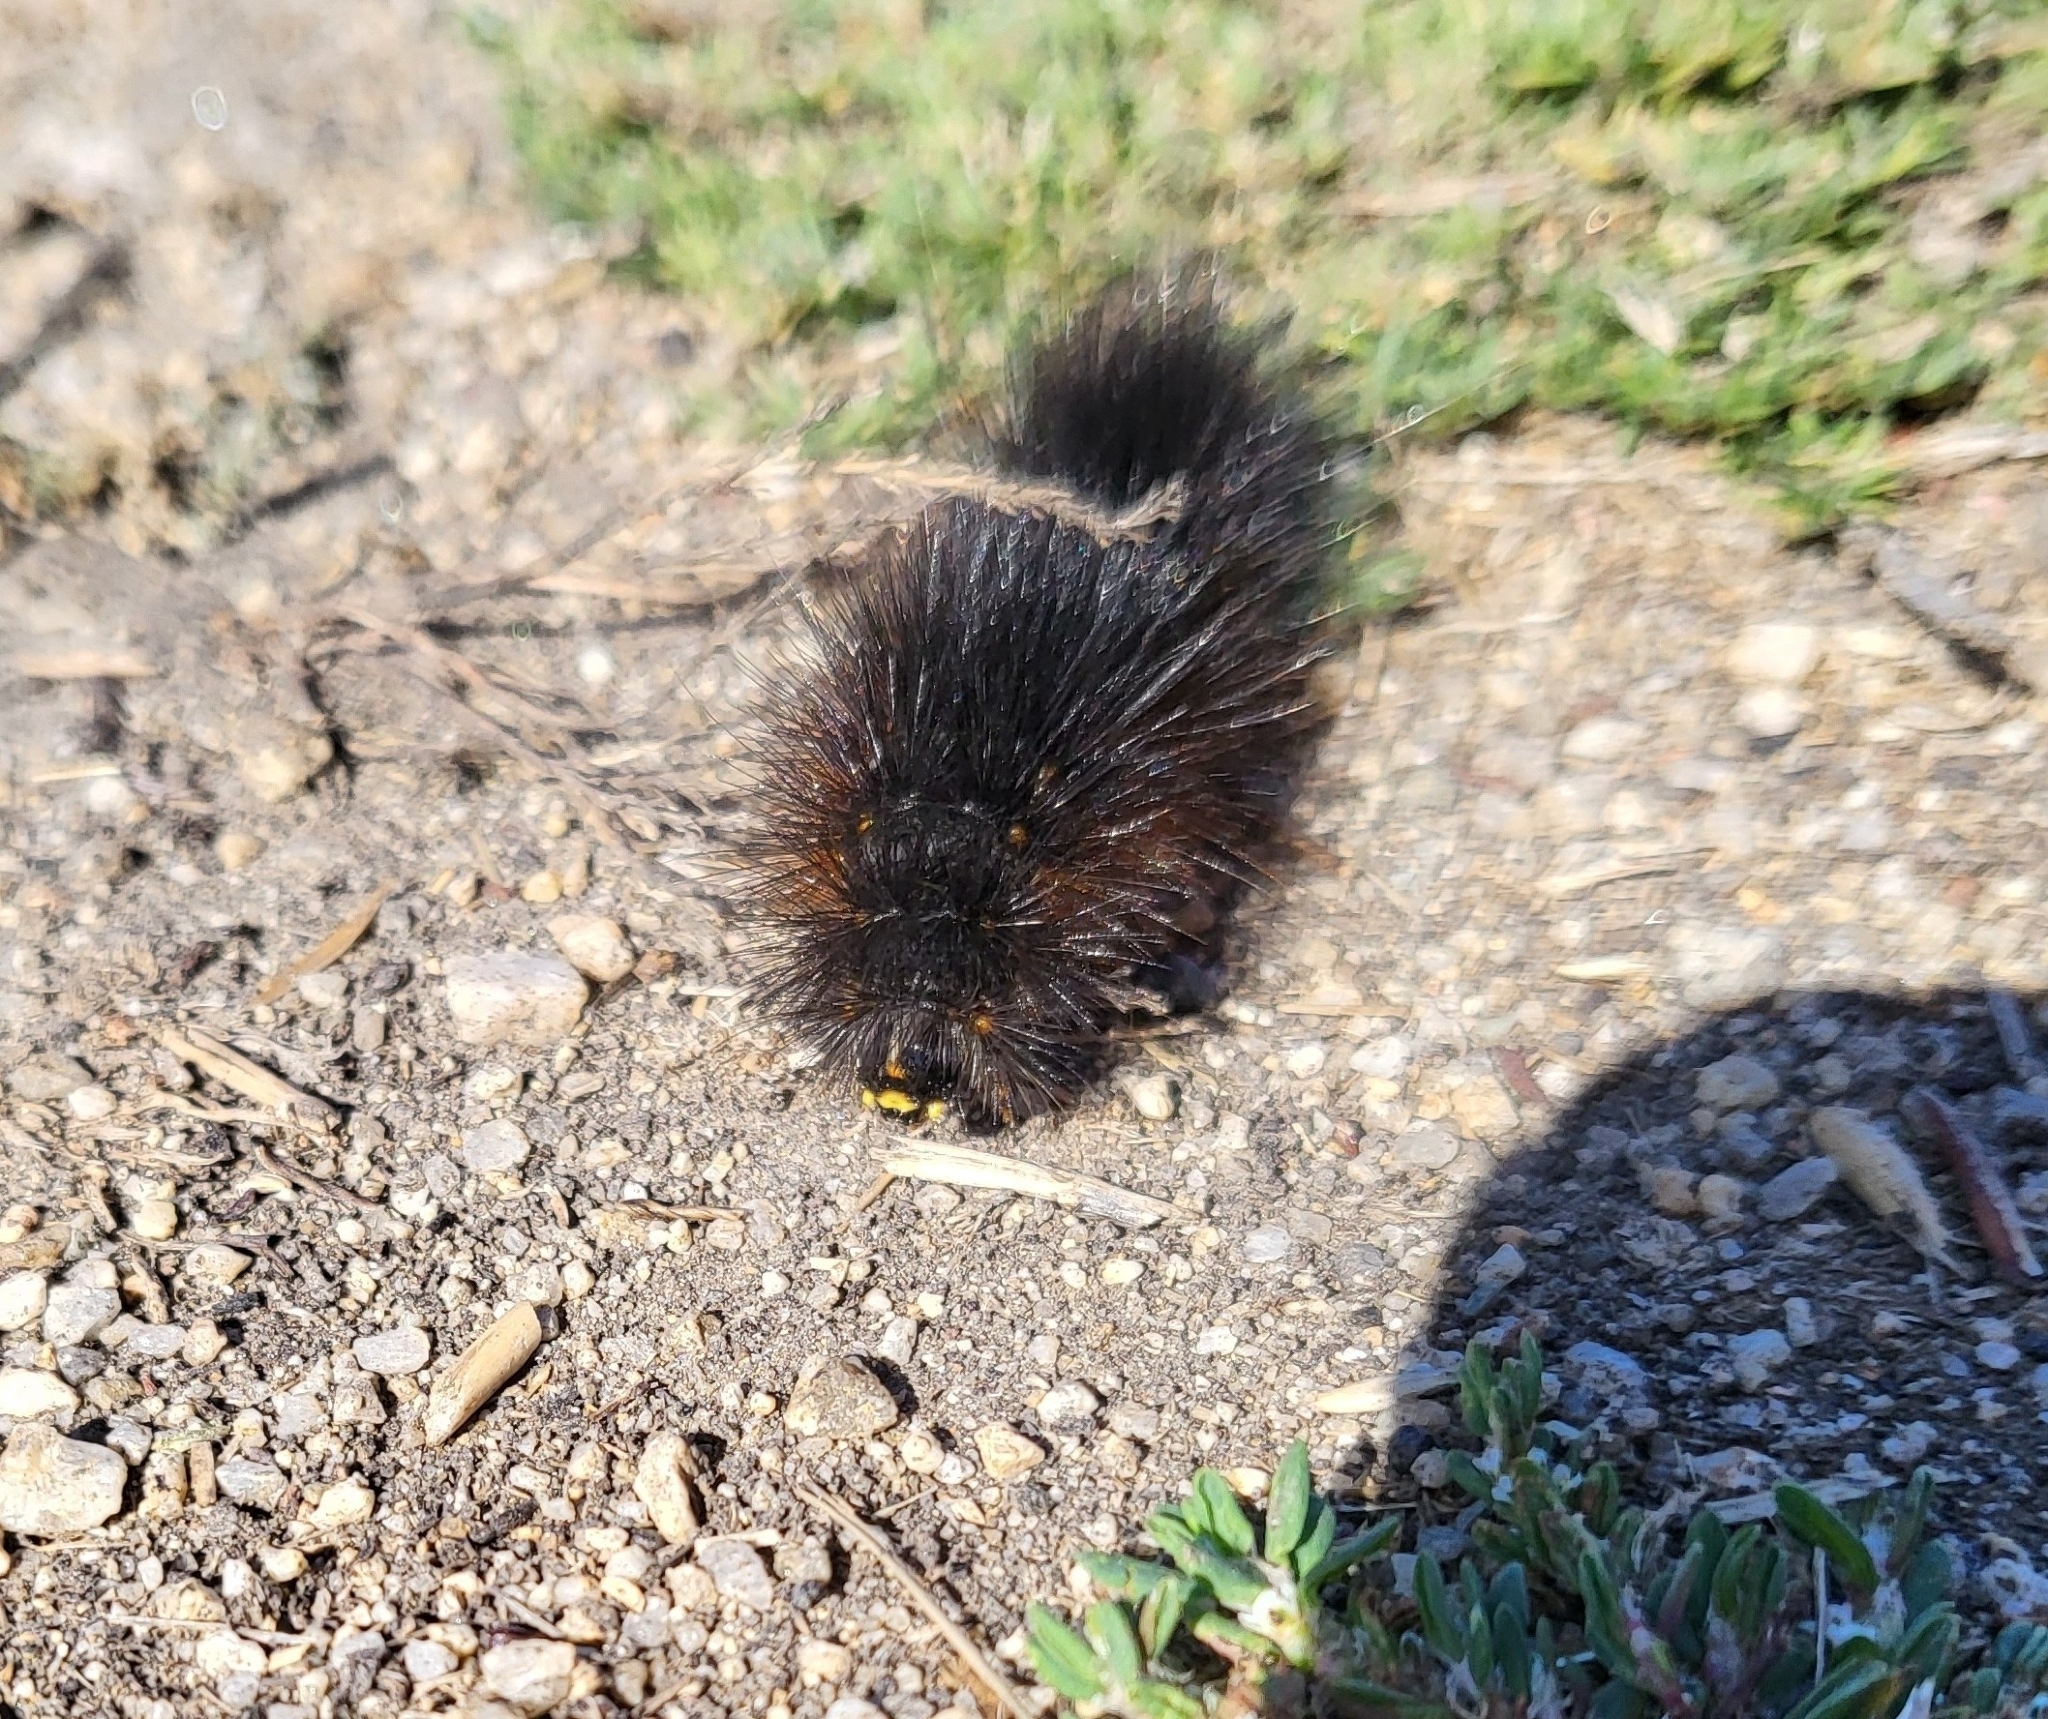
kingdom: Animalia
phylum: Arthropoda
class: Insecta
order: Lepidoptera
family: Erebidae
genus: Estigmene
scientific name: Estigmene acrea
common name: Salt marsh moth
